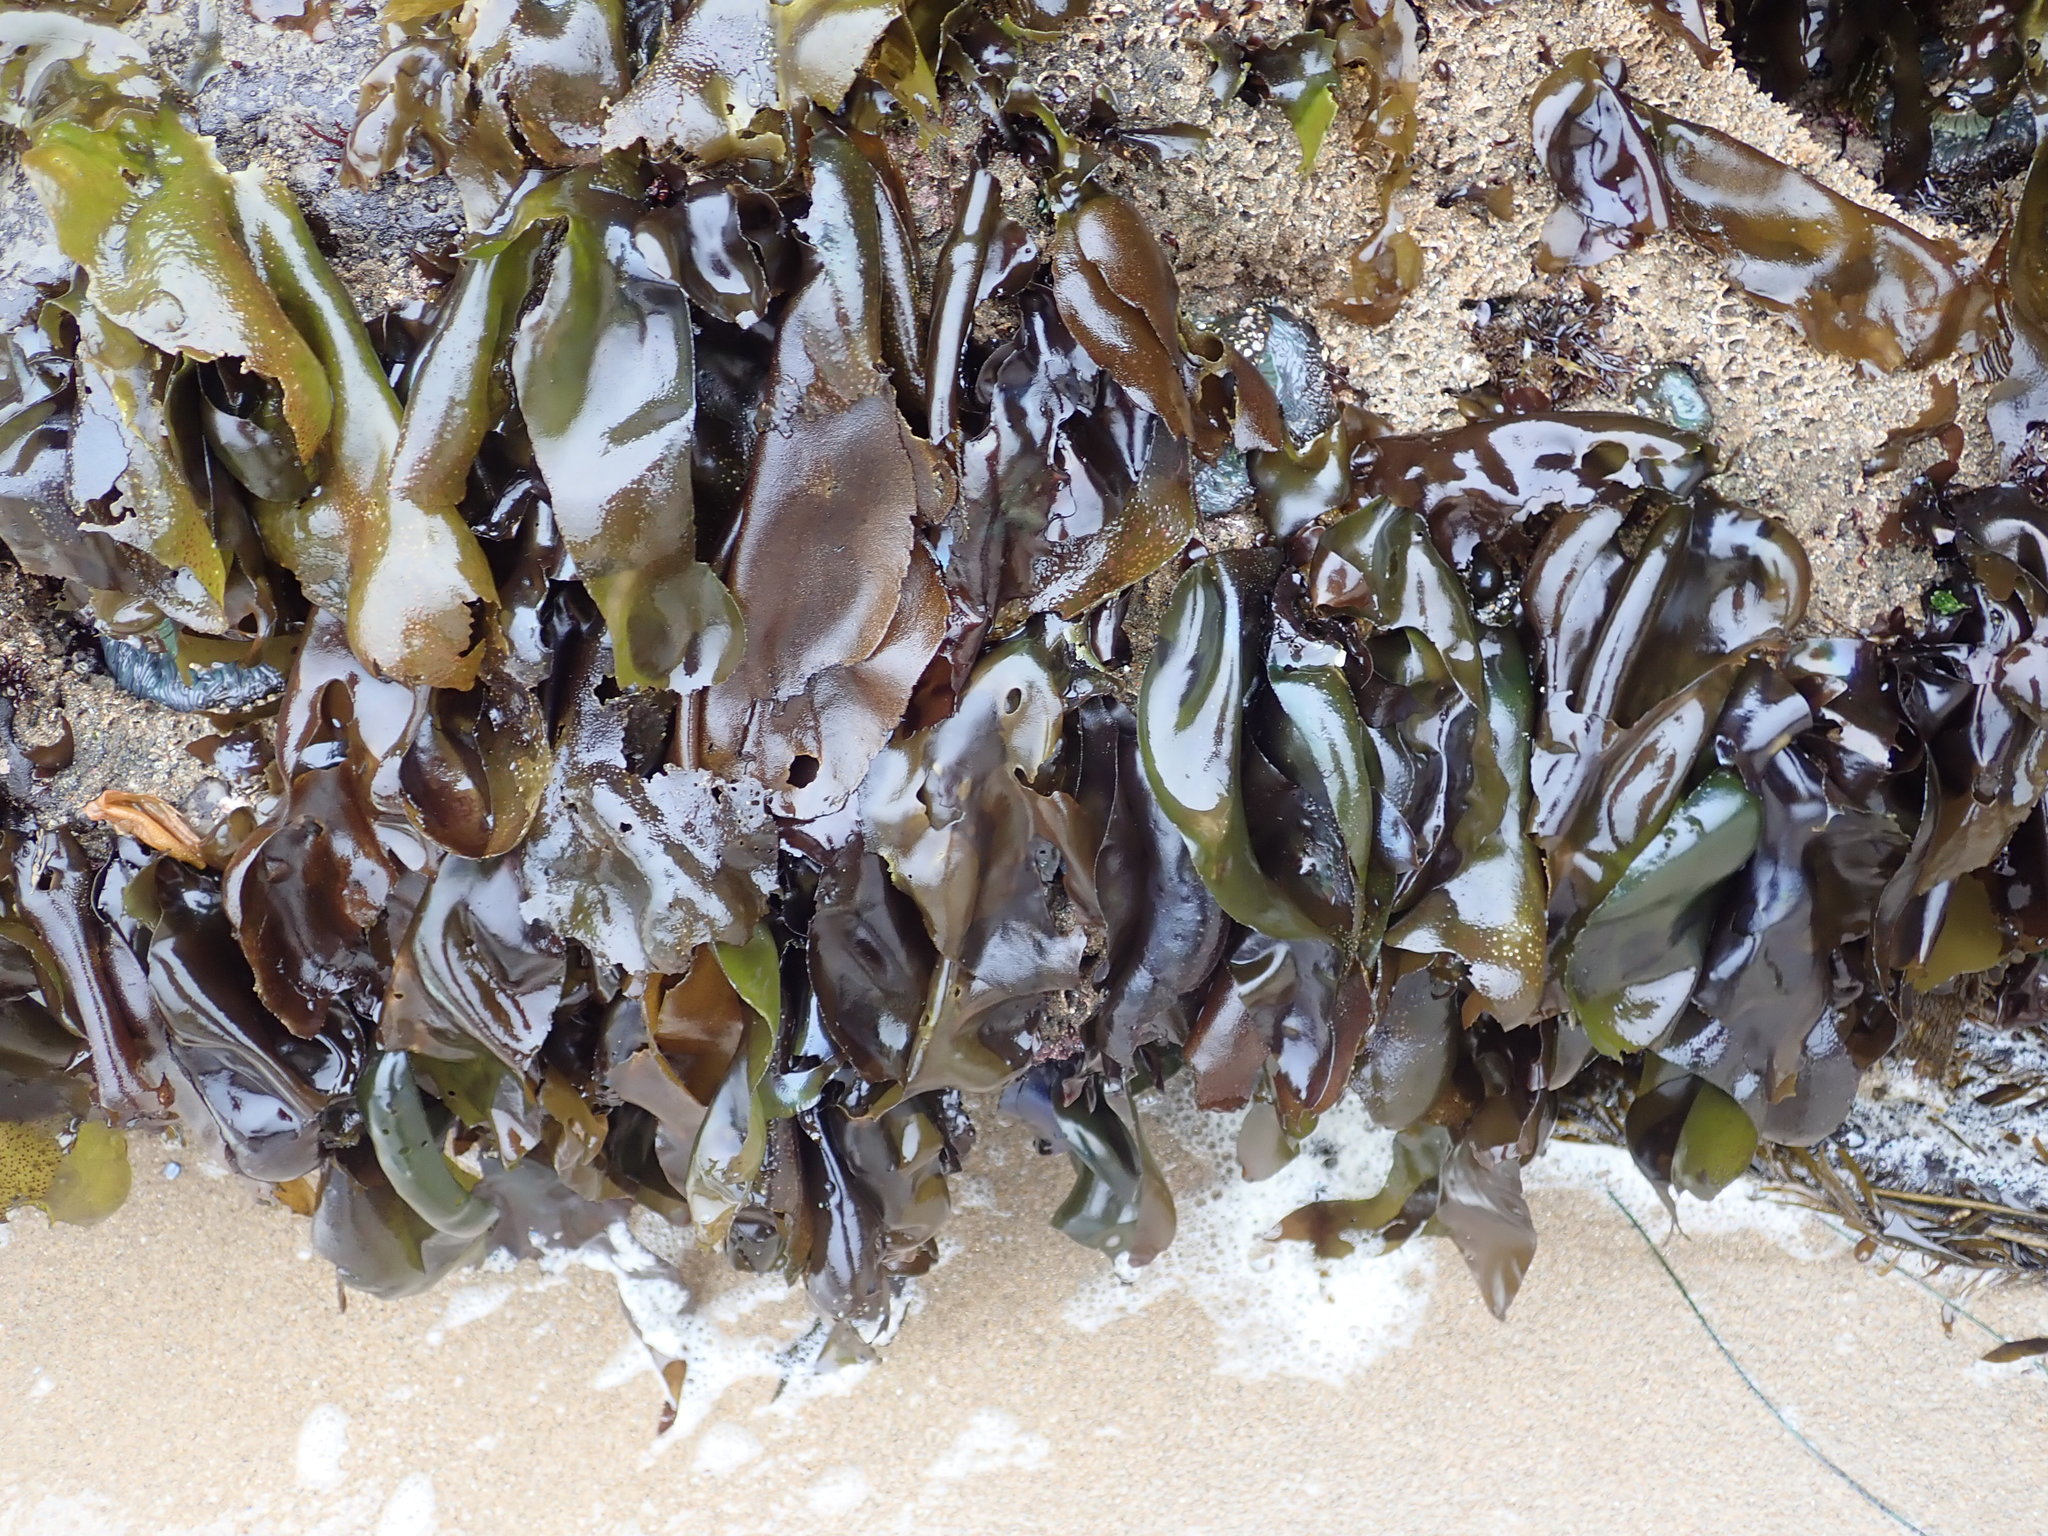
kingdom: Plantae
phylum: Rhodophyta
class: Florideophyceae
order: Gigartinales
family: Gigartinaceae
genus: Mazzaella
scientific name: Mazzaella flaccida
